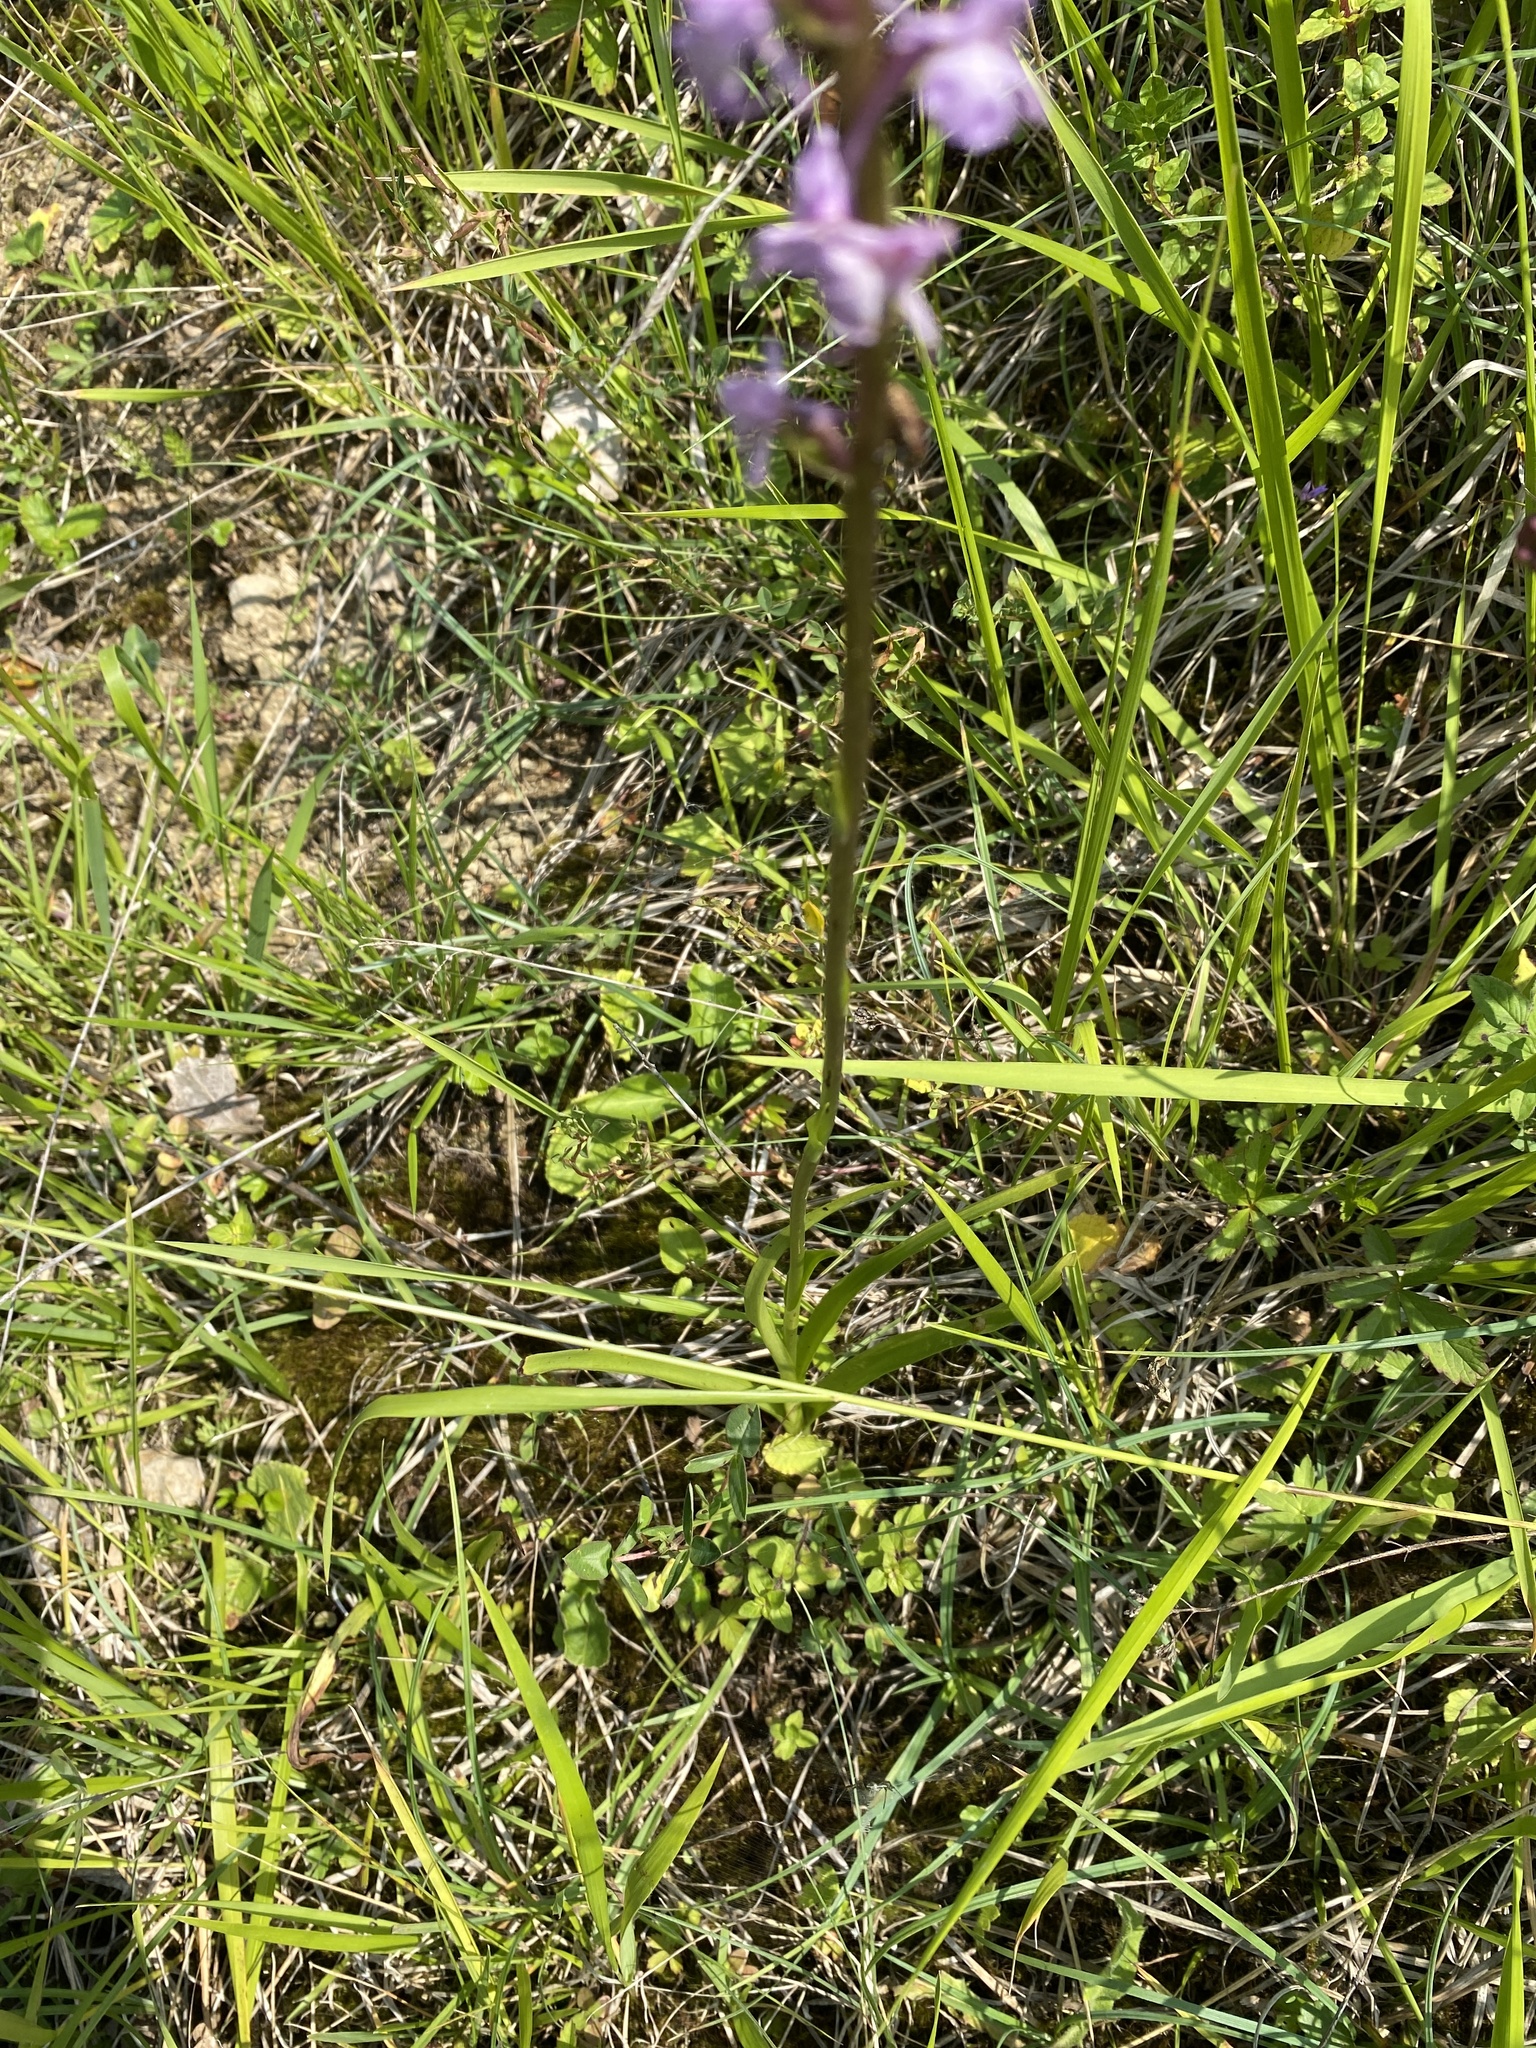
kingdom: Plantae
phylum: Tracheophyta
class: Liliopsida
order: Asparagales
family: Orchidaceae
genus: Gymnadenia
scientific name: Gymnadenia conopsea
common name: Fragrant orchid
